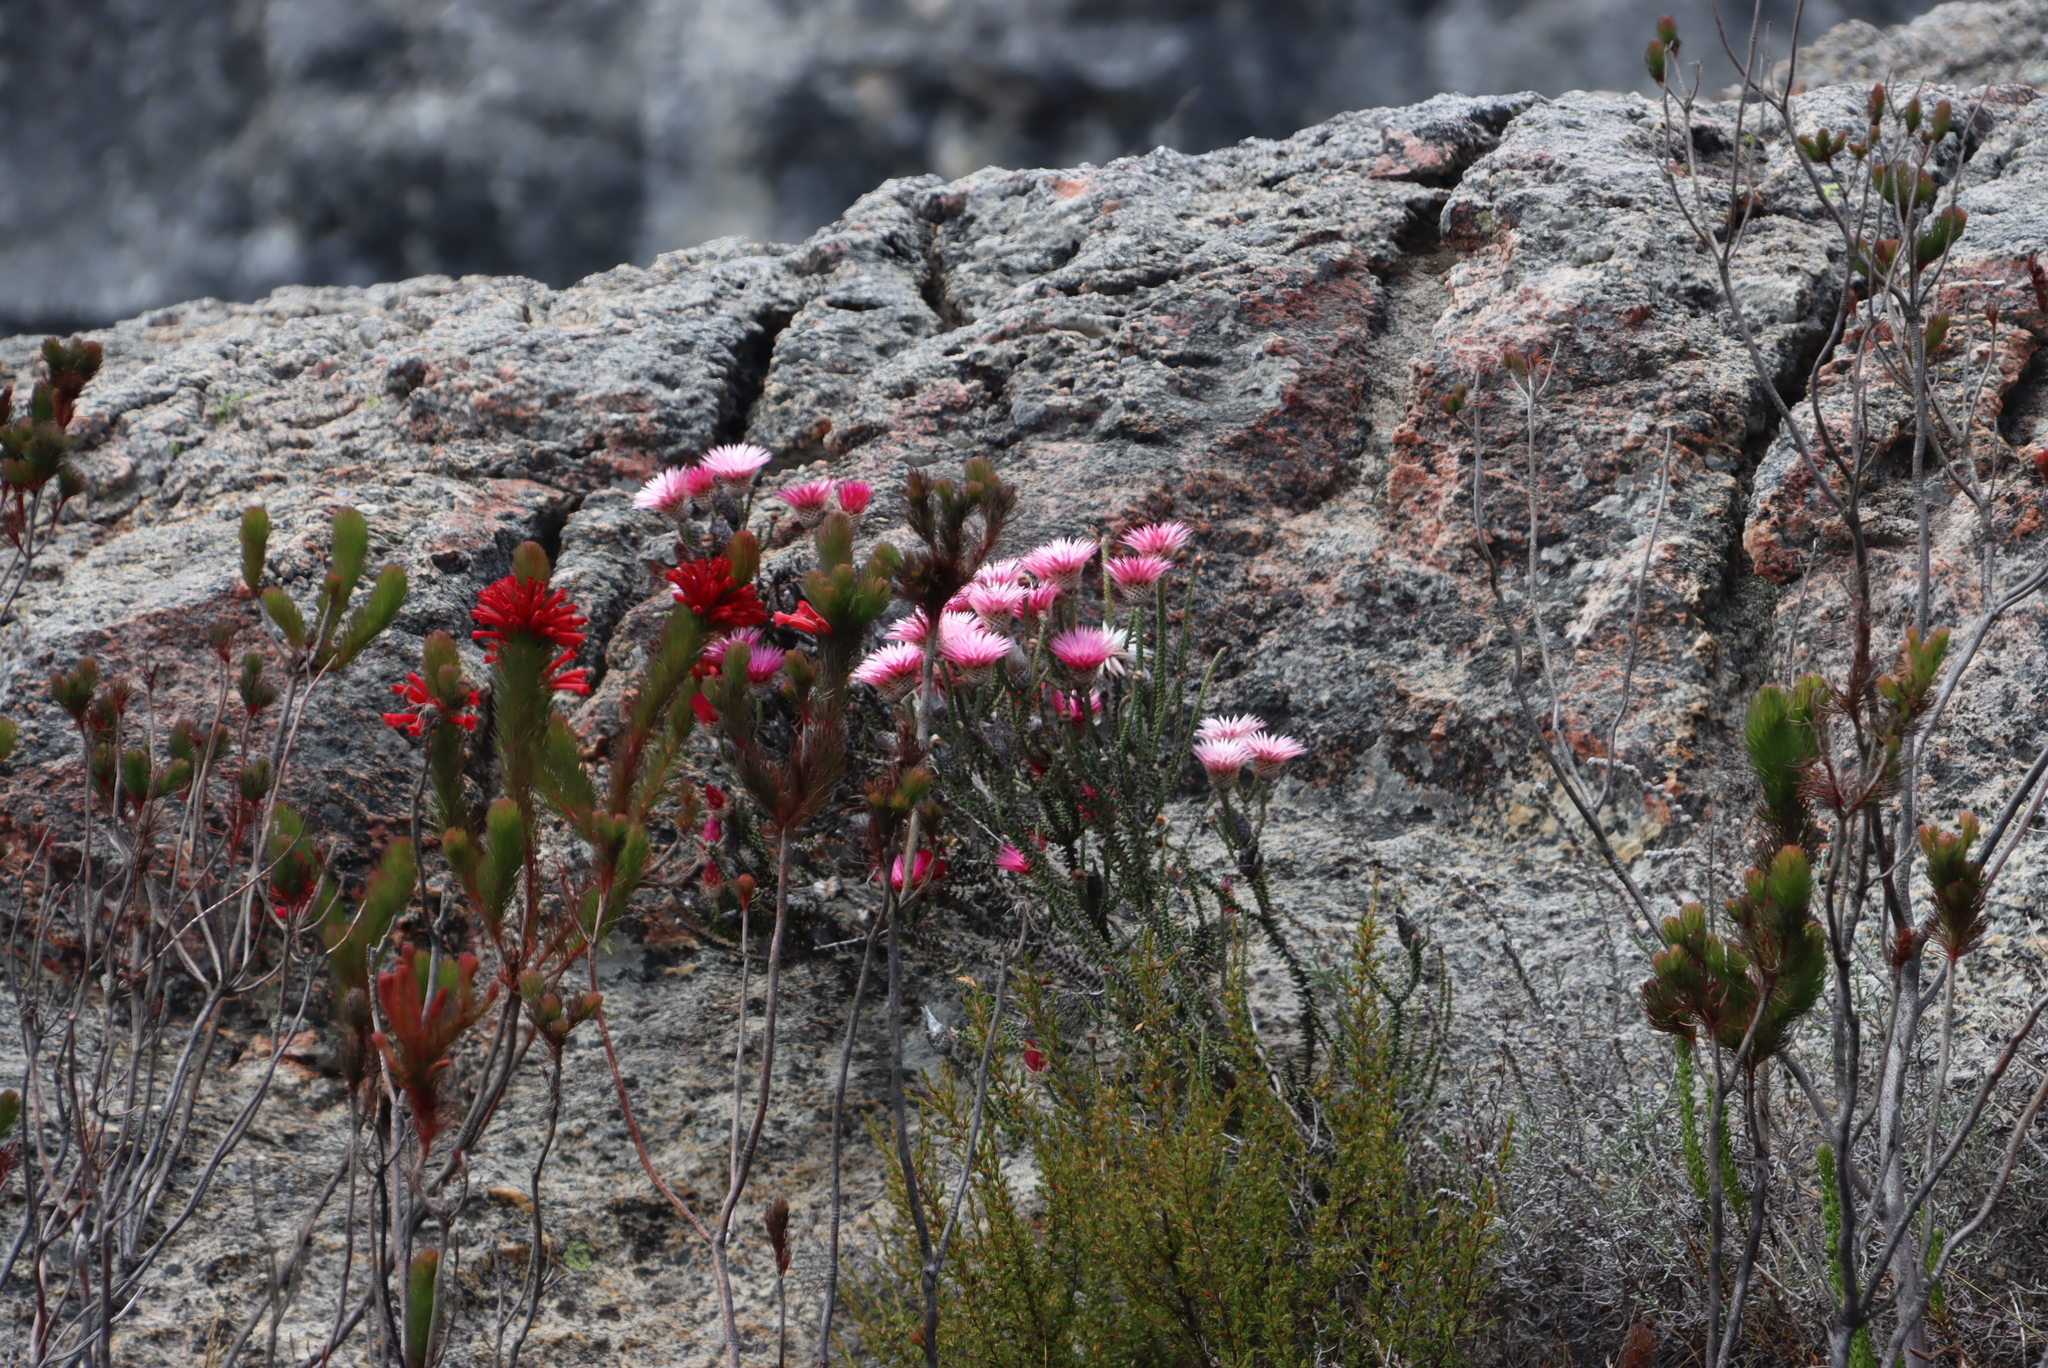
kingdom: Plantae
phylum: Tracheophyta
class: Magnoliopsida
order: Asterales
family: Asteraceae
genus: Phaenocoma
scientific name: Phaenocoma prolifera
